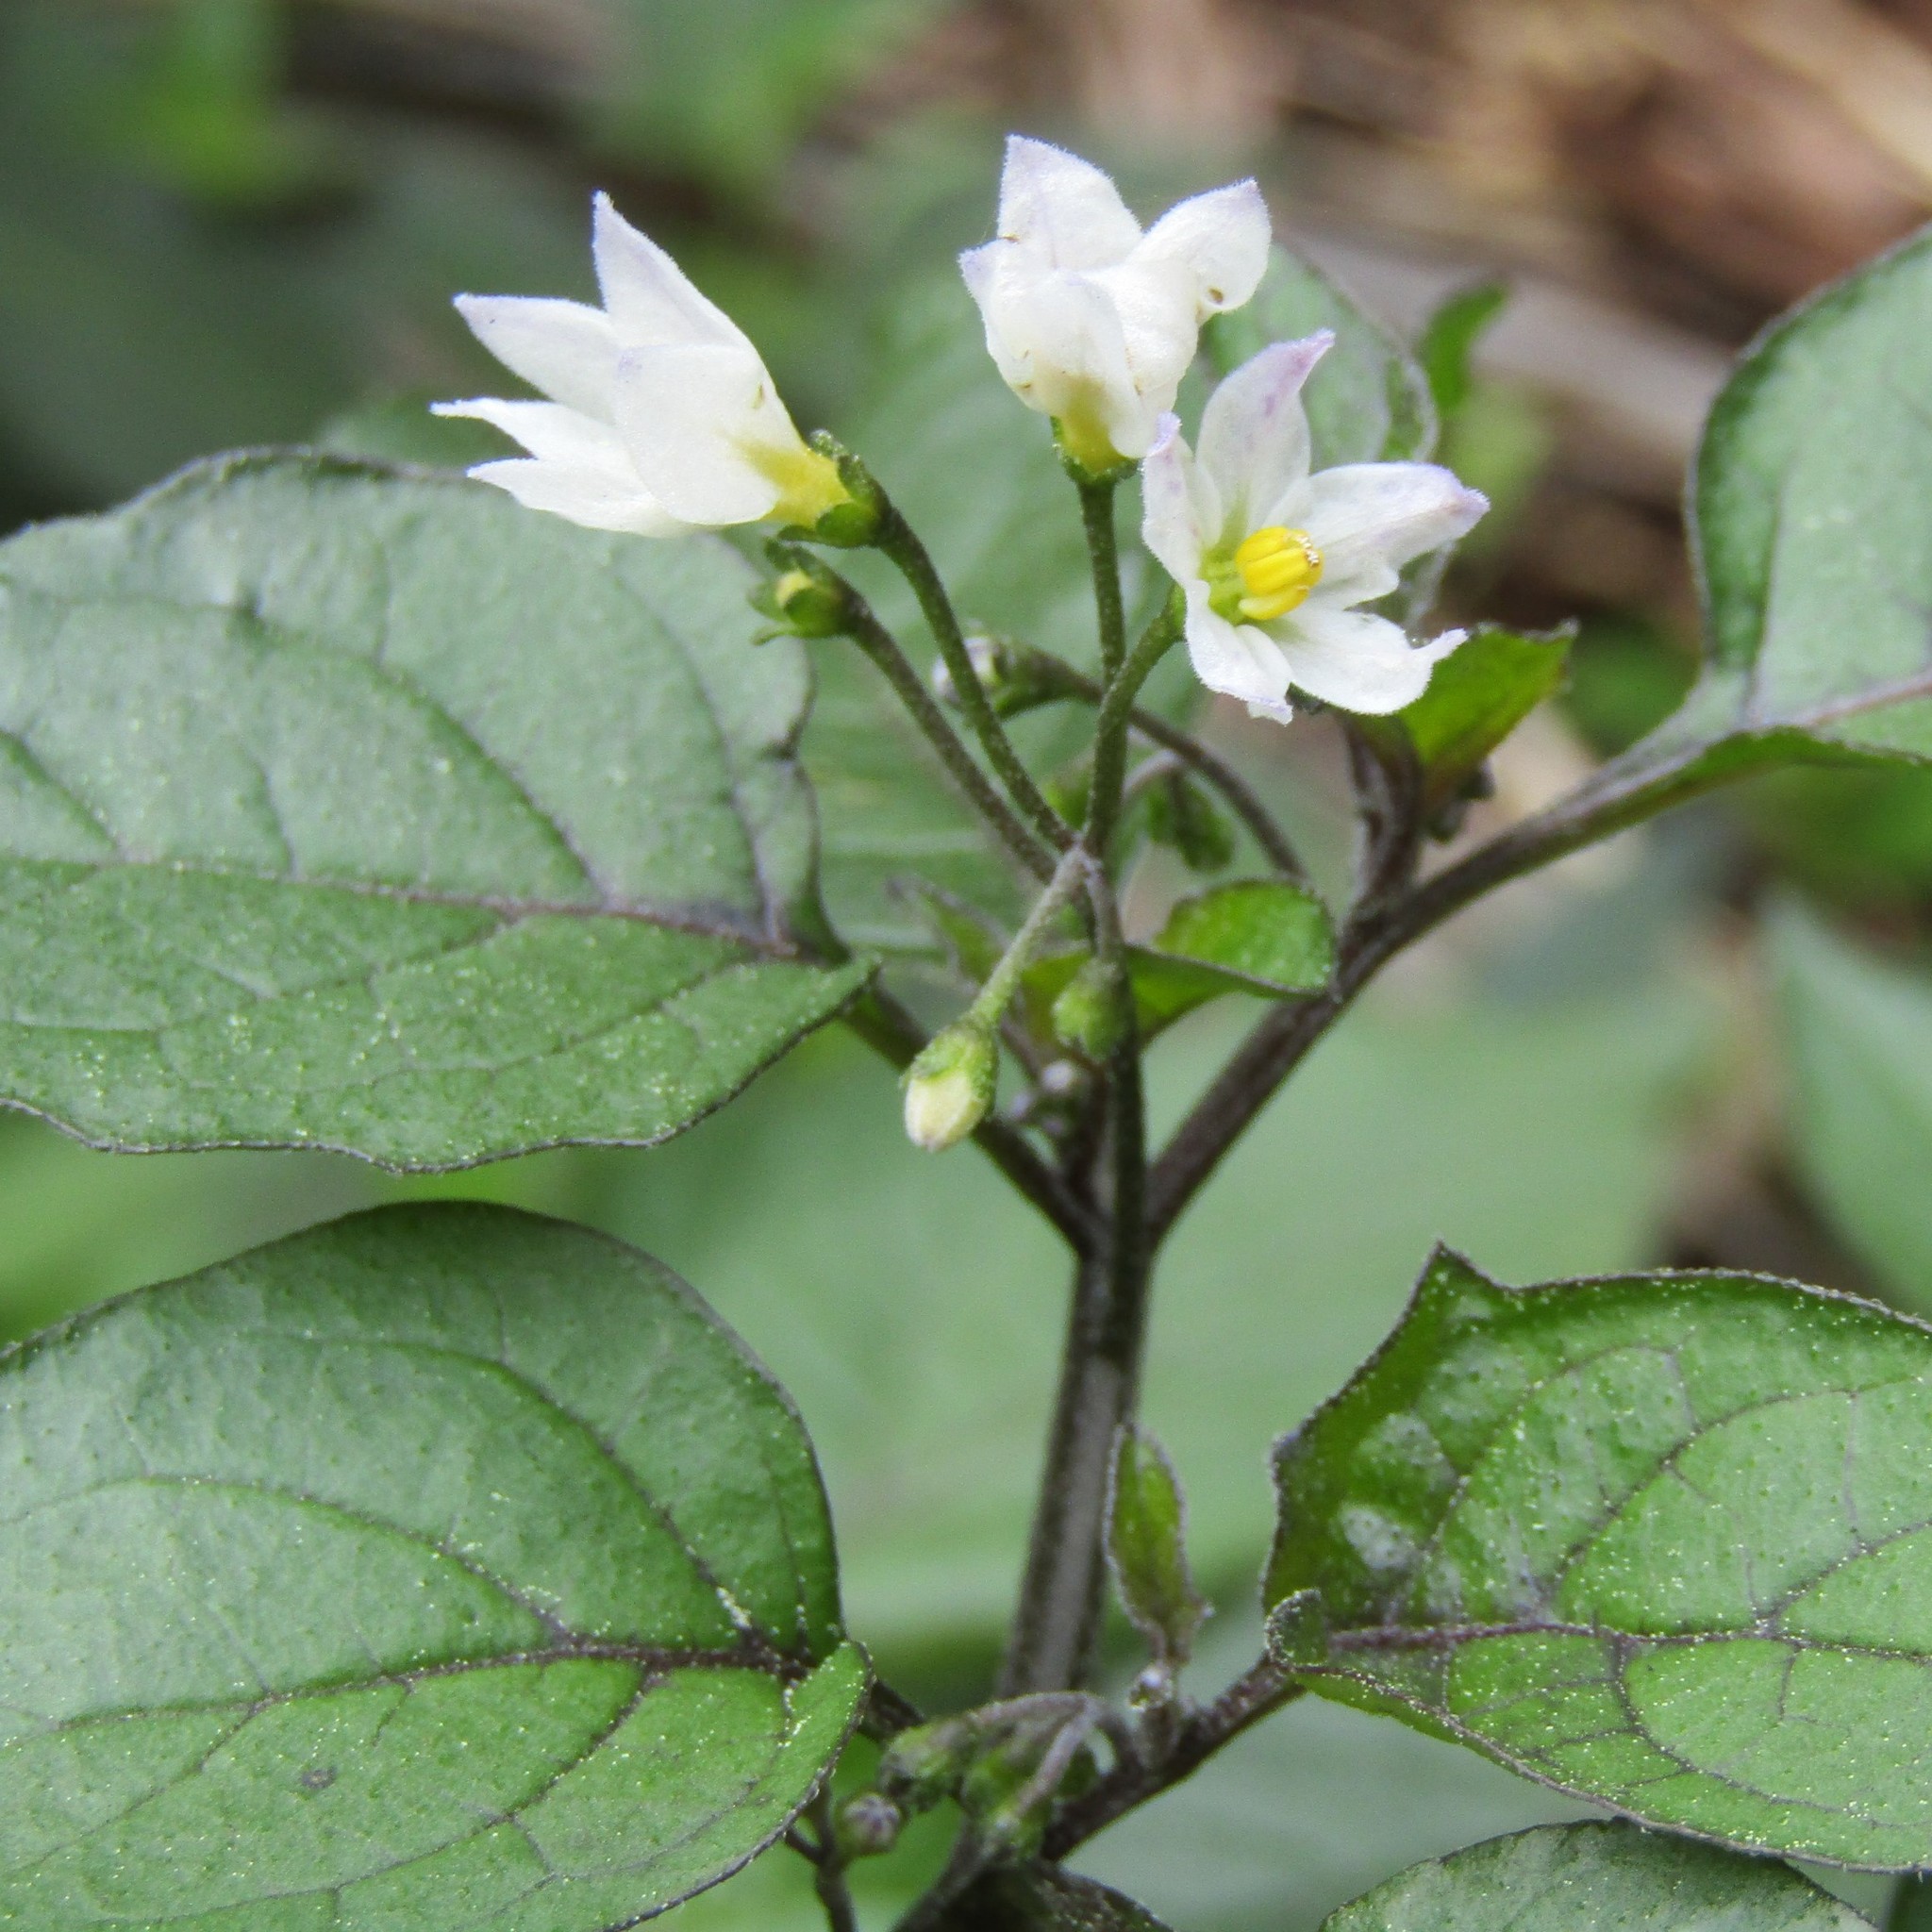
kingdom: Plantae
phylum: Tracheophyta
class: Magnoliopsida
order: Solanales
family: Solanaceae
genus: Solanum
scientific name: Solanum nigrum
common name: Black nightshade
